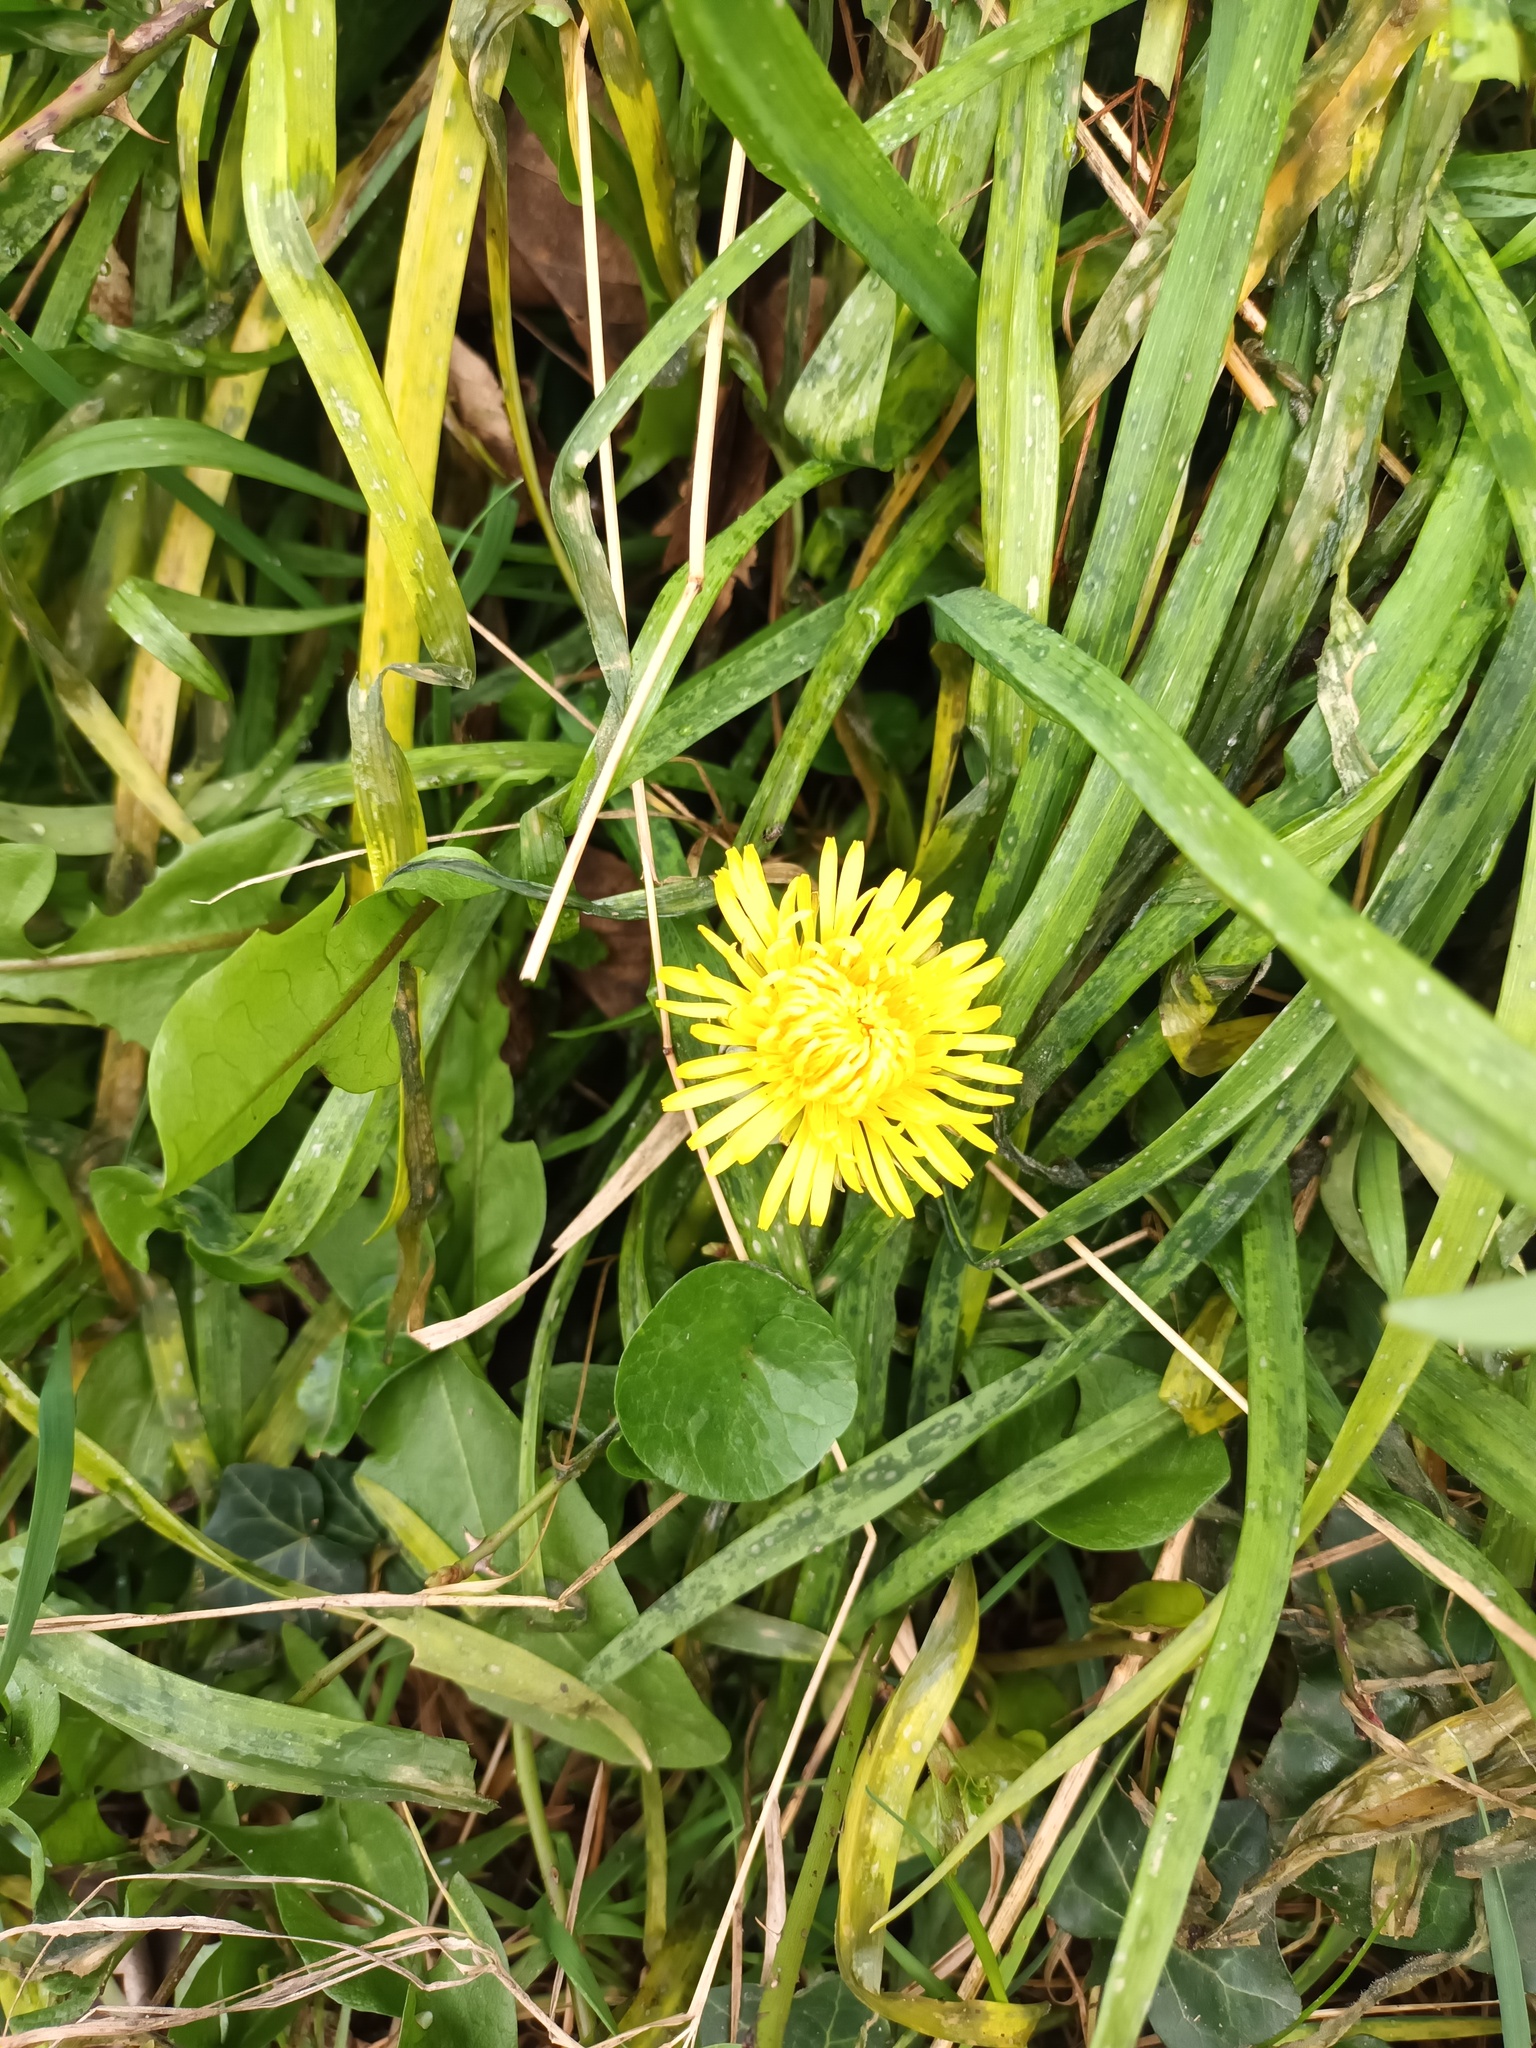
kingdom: Plantae
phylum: Tracheophyta
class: Magnoliopsida
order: Asterales
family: Asteraceae
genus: Taraxacum
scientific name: Taraxacum officinale
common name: Common dandelion
